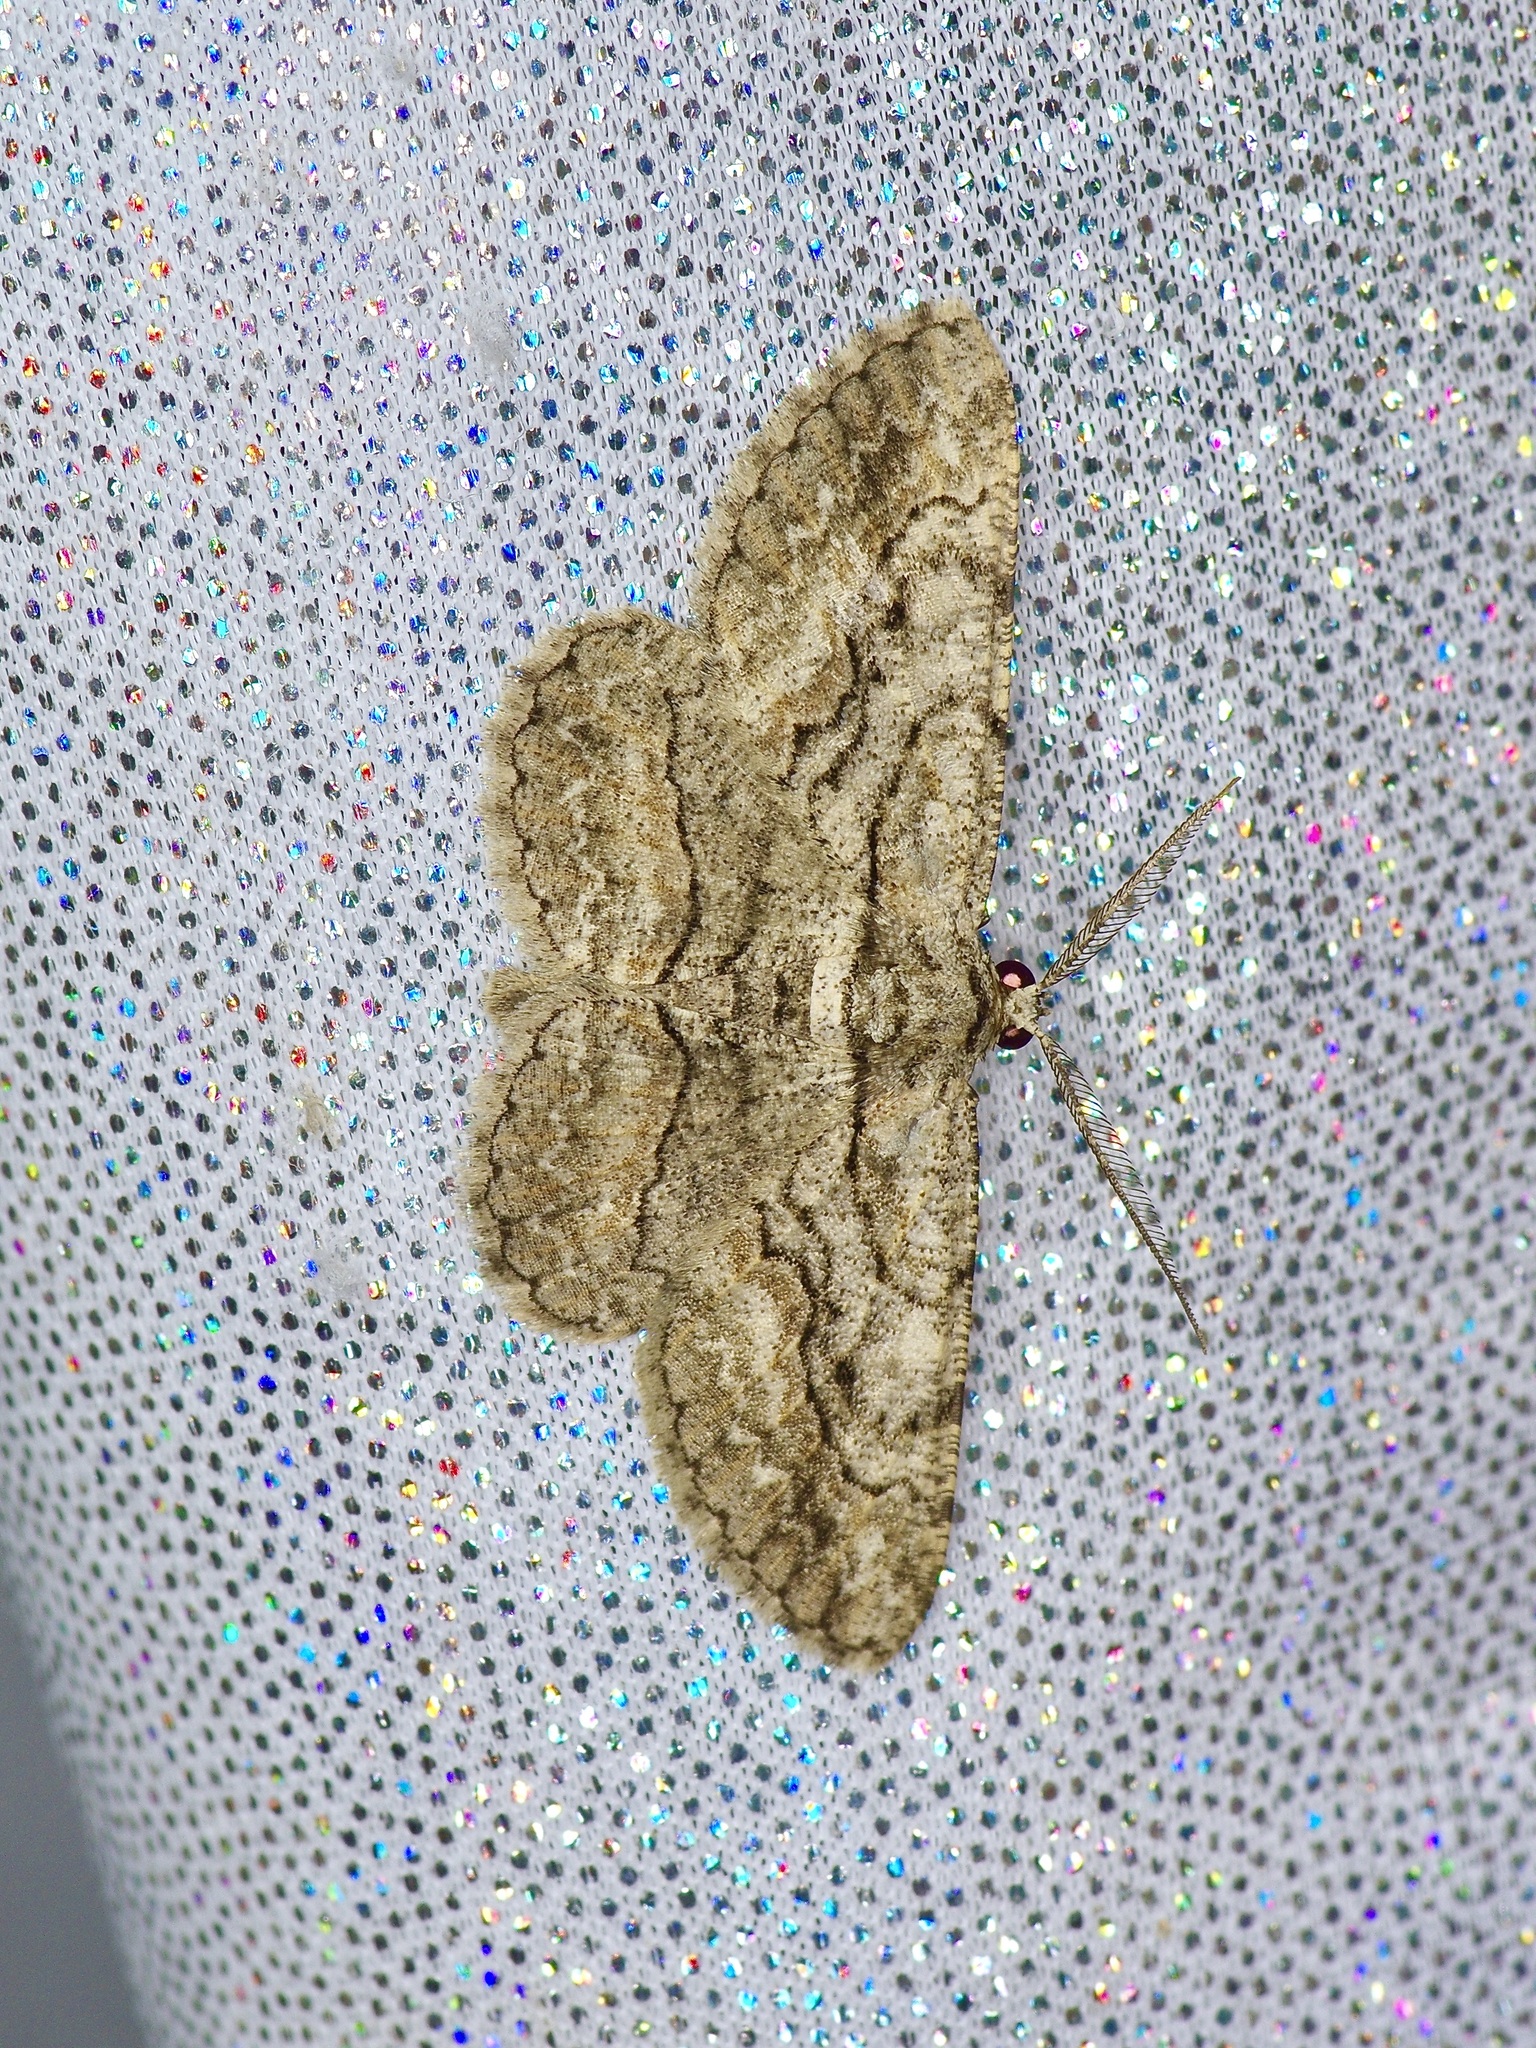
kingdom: Animalia
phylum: Arthropoda
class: Insecta
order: Lepidoptera
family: Geometridae
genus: Iridopsis
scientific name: Iridopsis defectaria
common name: Brown-shaded gray
